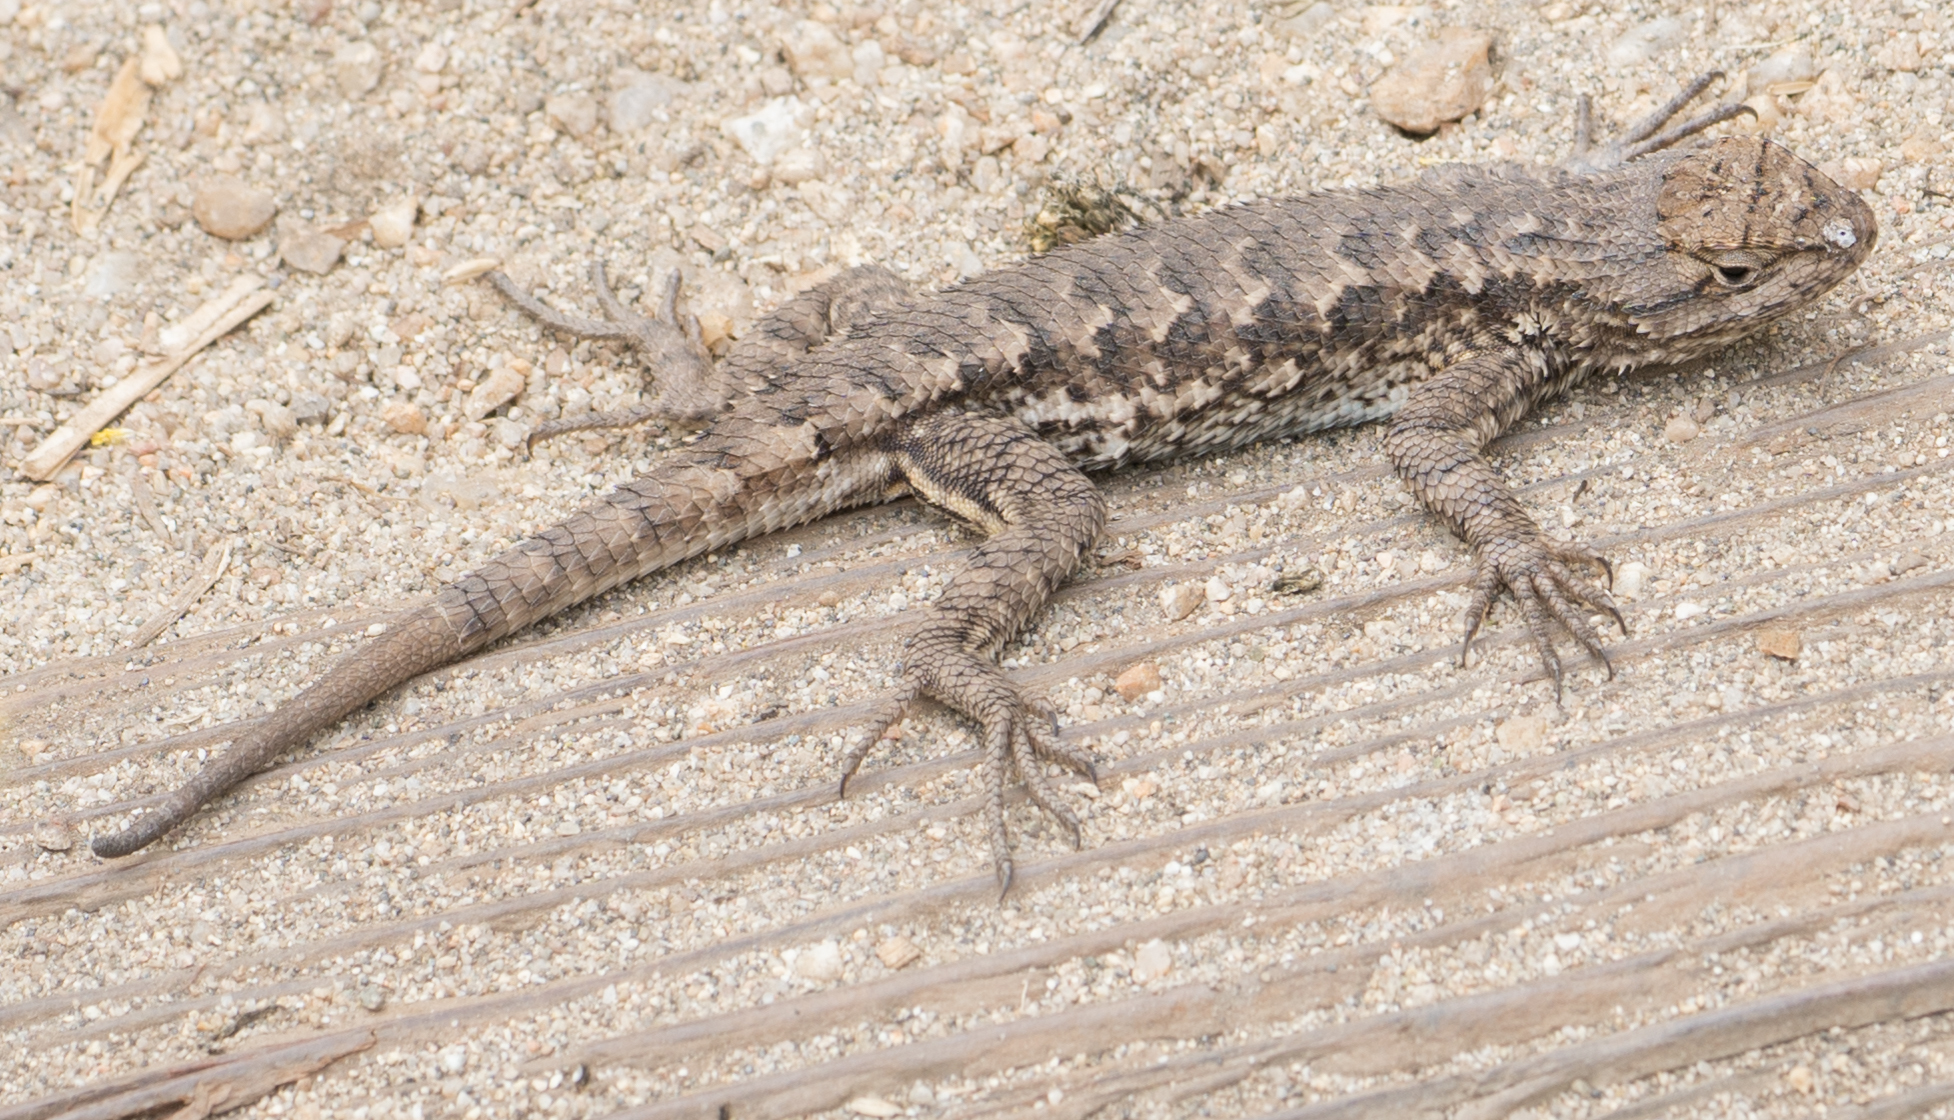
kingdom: Animalia
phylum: Chordata
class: Squamata
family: Phrynosomatidae
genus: Sceloporus
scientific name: Sceloporus occidentalis
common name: Western fence lizard
